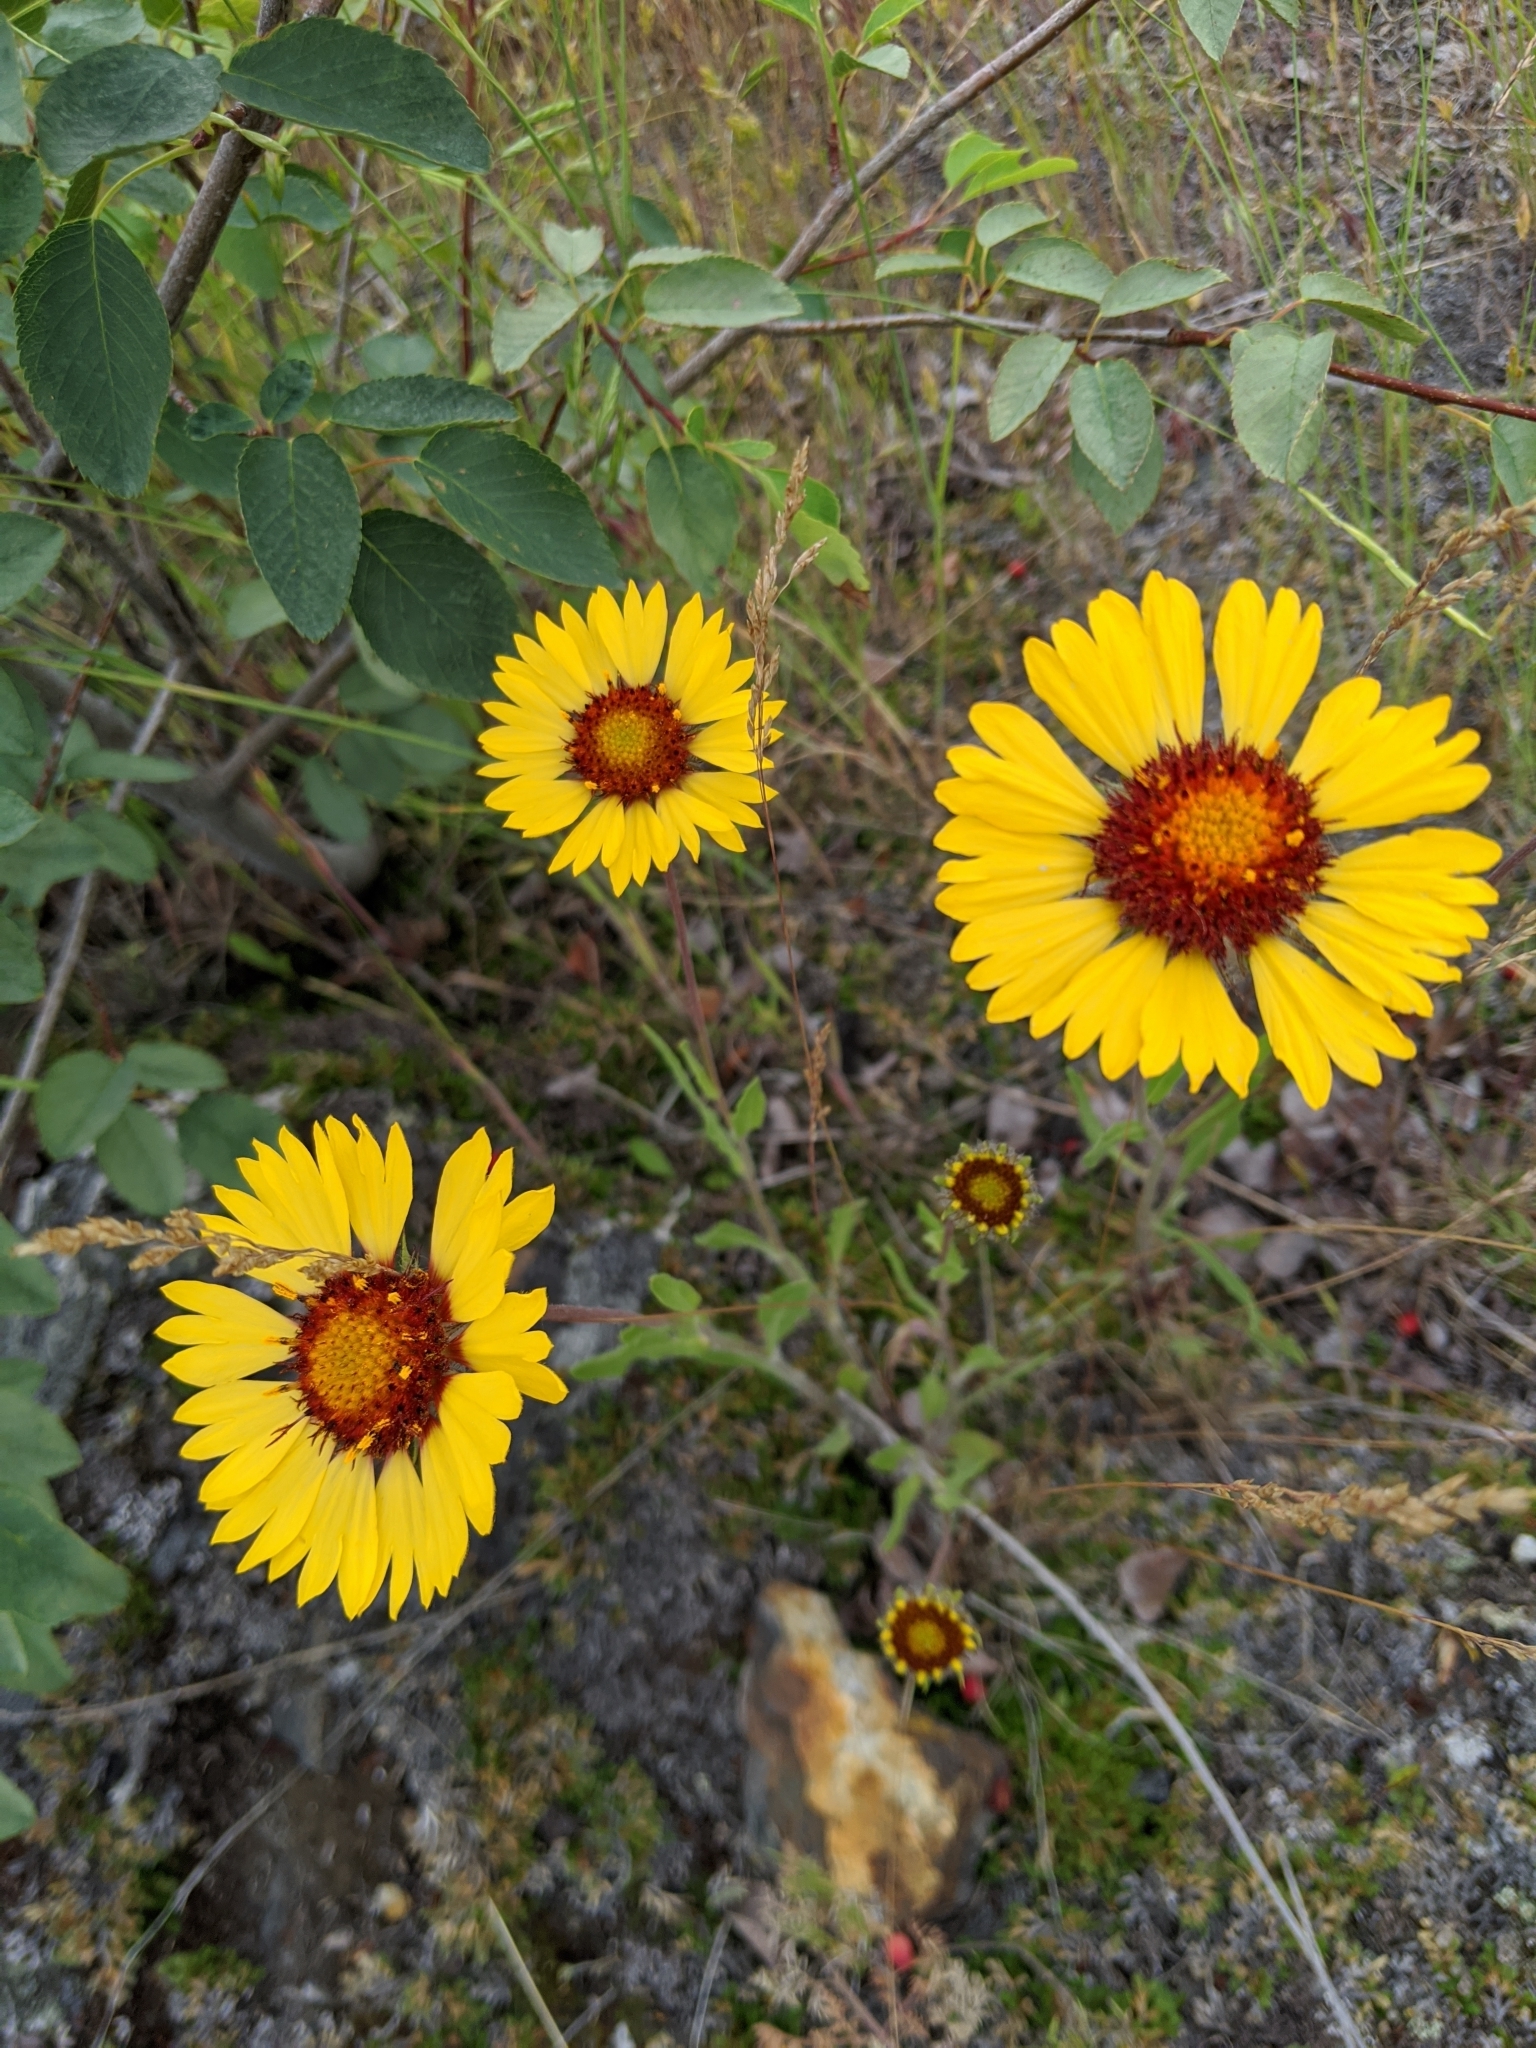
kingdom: Plantae
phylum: Tracheophyta
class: Magnoliopsida
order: Asterales
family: Asteraceae
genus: Gaillardia
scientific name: Gaillardia aristata
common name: Blanket-flower
